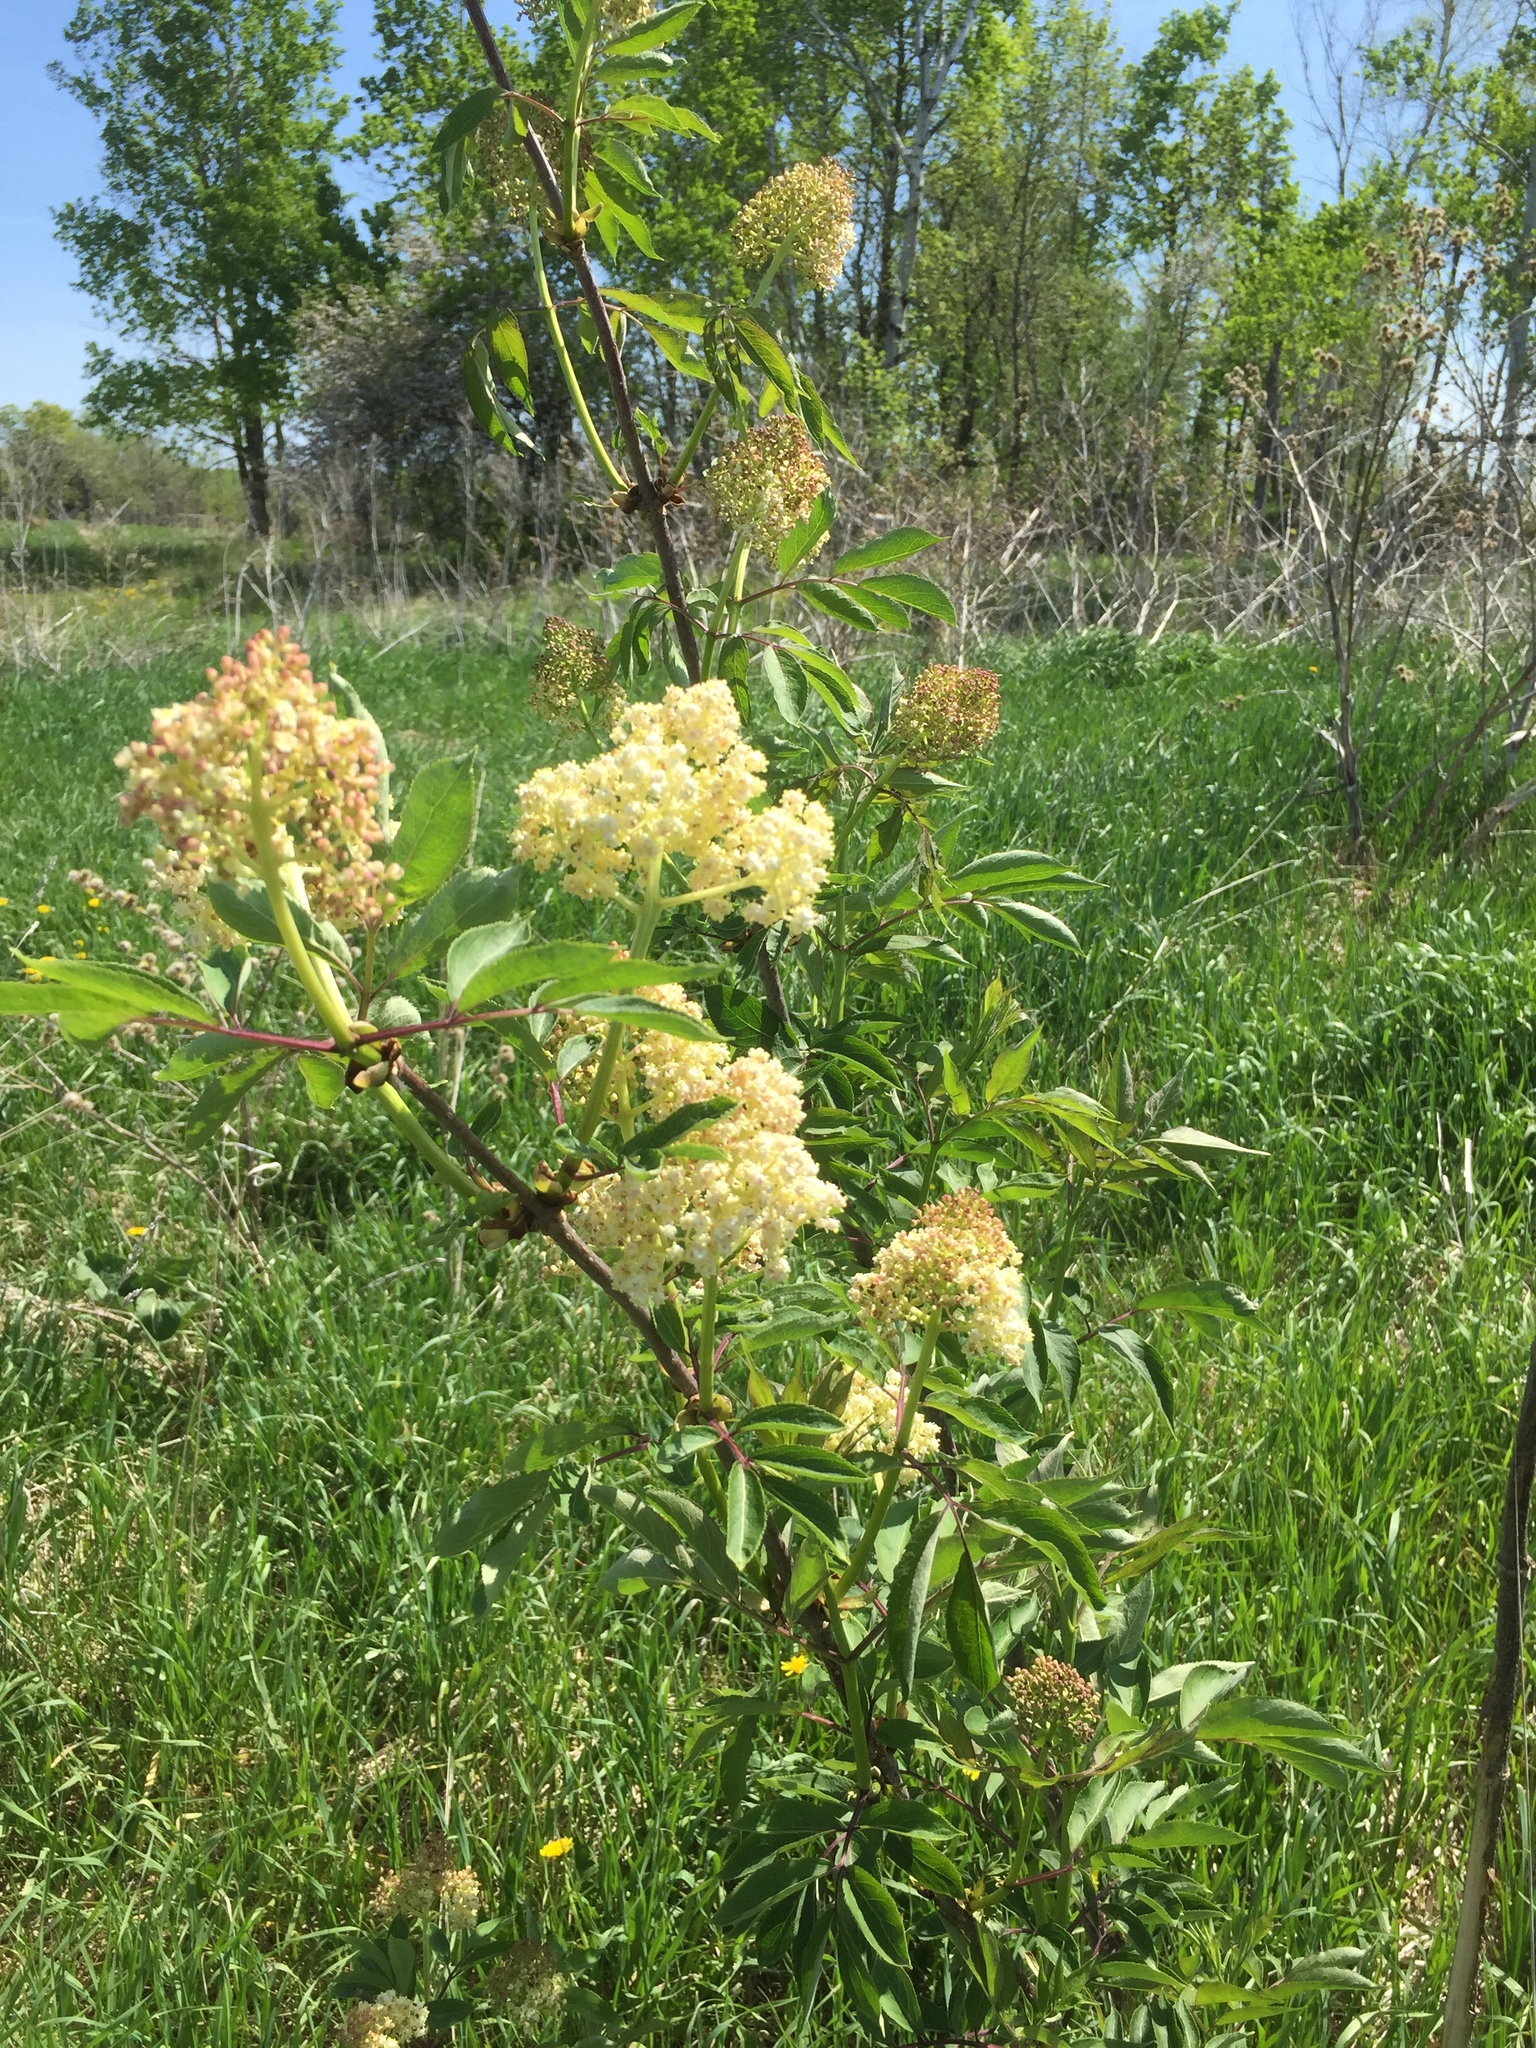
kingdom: Plantae
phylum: Tracheophyta
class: Magnoliopsida
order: Dipsacales
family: Viburnaceae
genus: Sambucus
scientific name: Sambucus racemosa
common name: Red-berried elder
